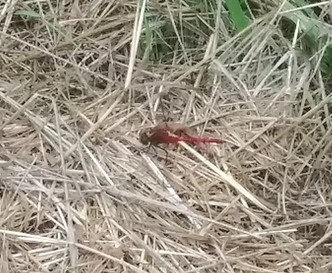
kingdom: Animalia
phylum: Arthropoda
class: Insecta
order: Odonata
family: Libellulidae
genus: Sympetrum
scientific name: Sympetrum
